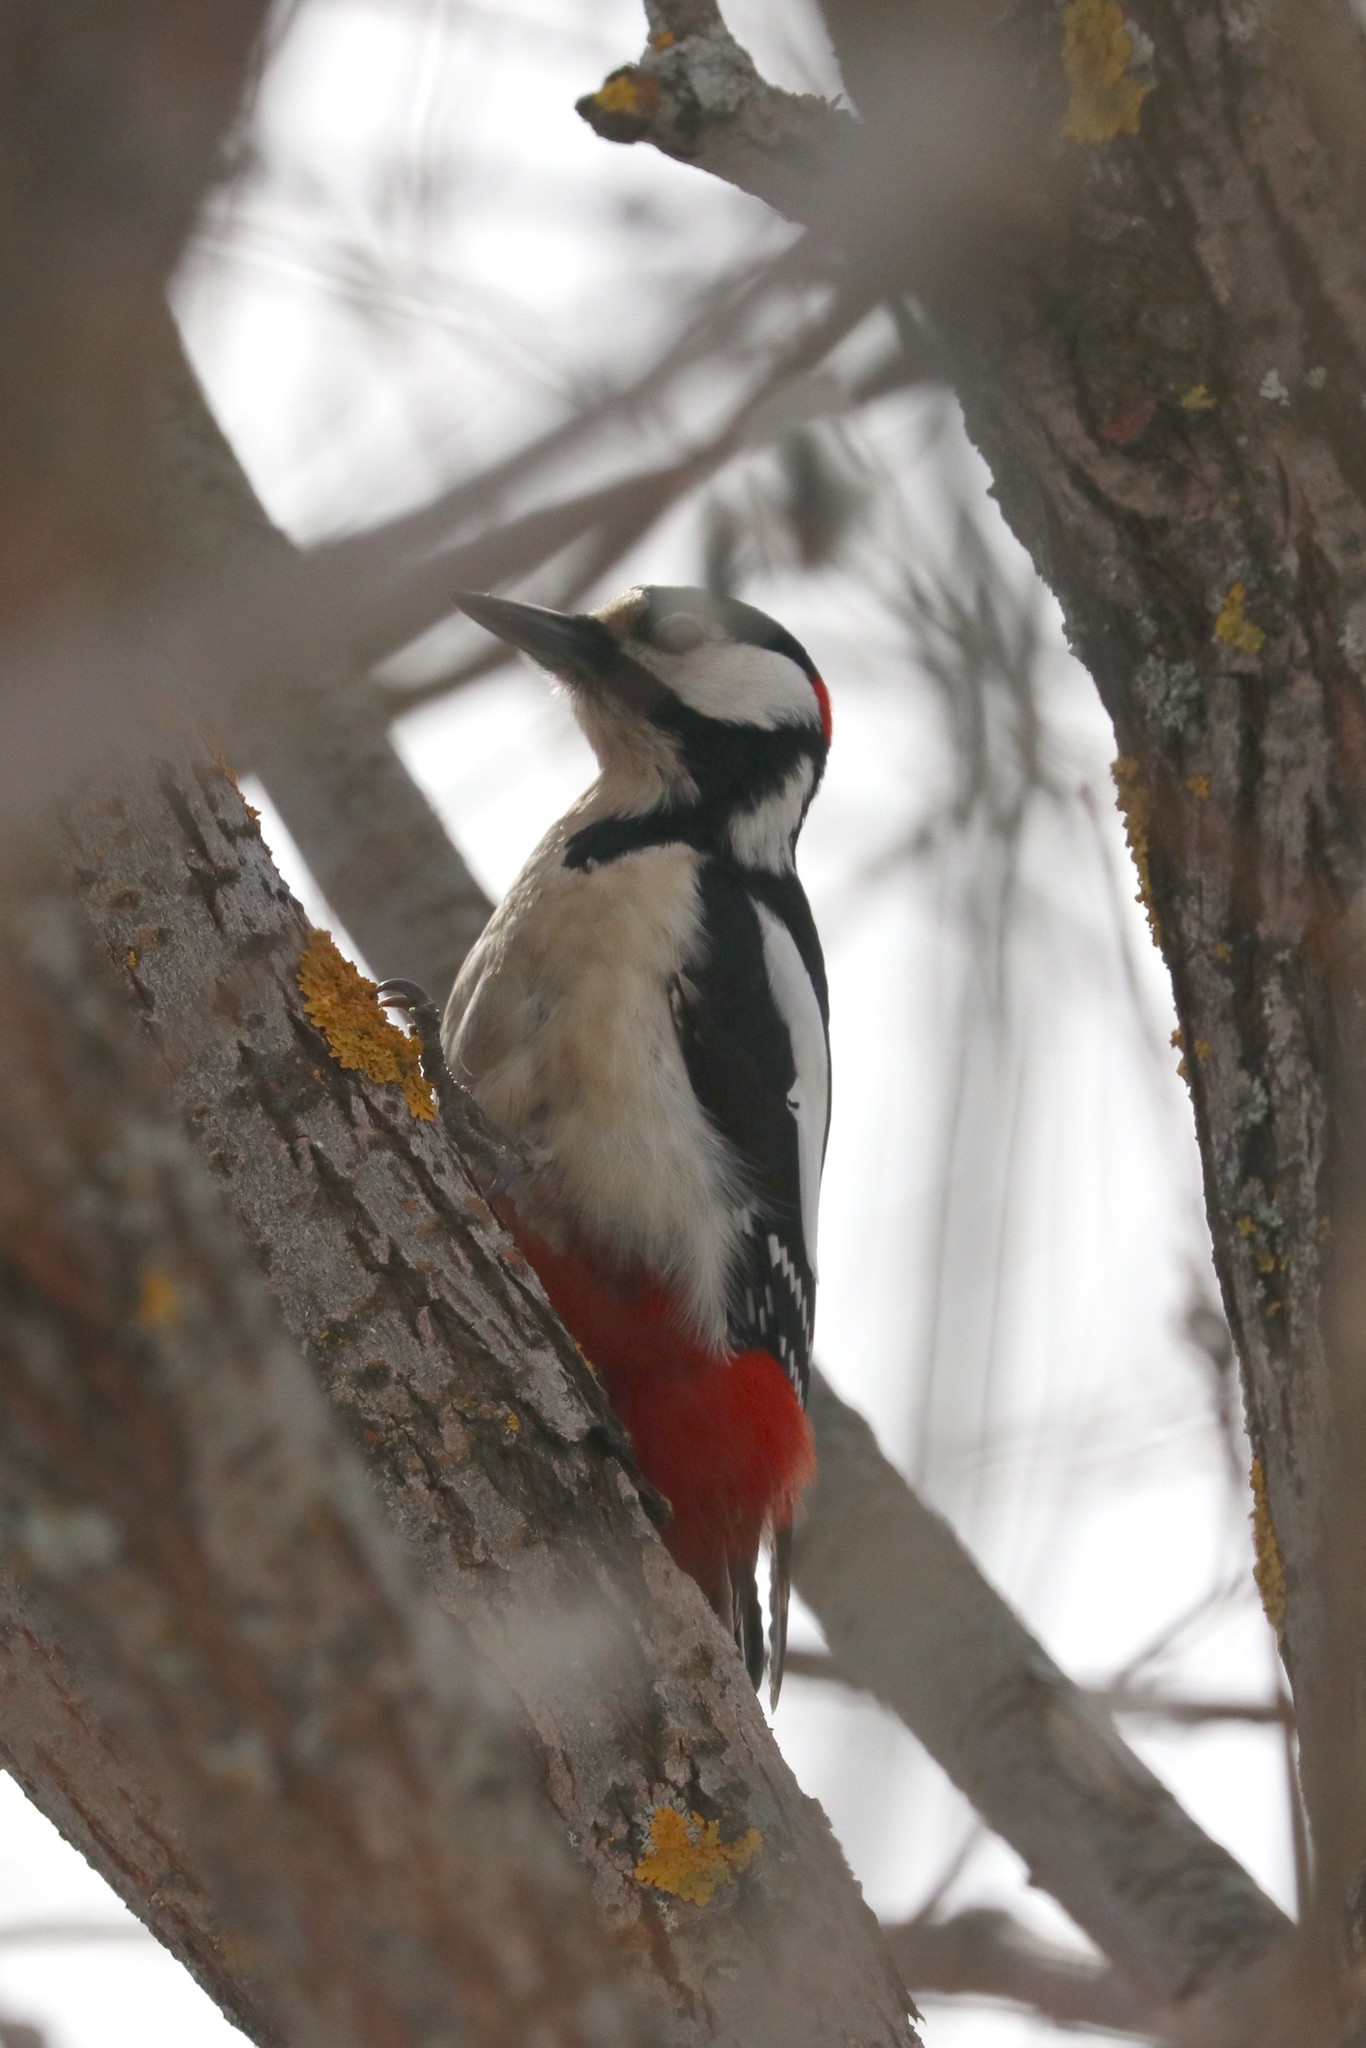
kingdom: Animalia
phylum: Chordata
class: Aves
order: Piciformes
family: Picidae
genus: Dendrocopos
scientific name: Dendrocopos major
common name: Great spotted woodpecker
